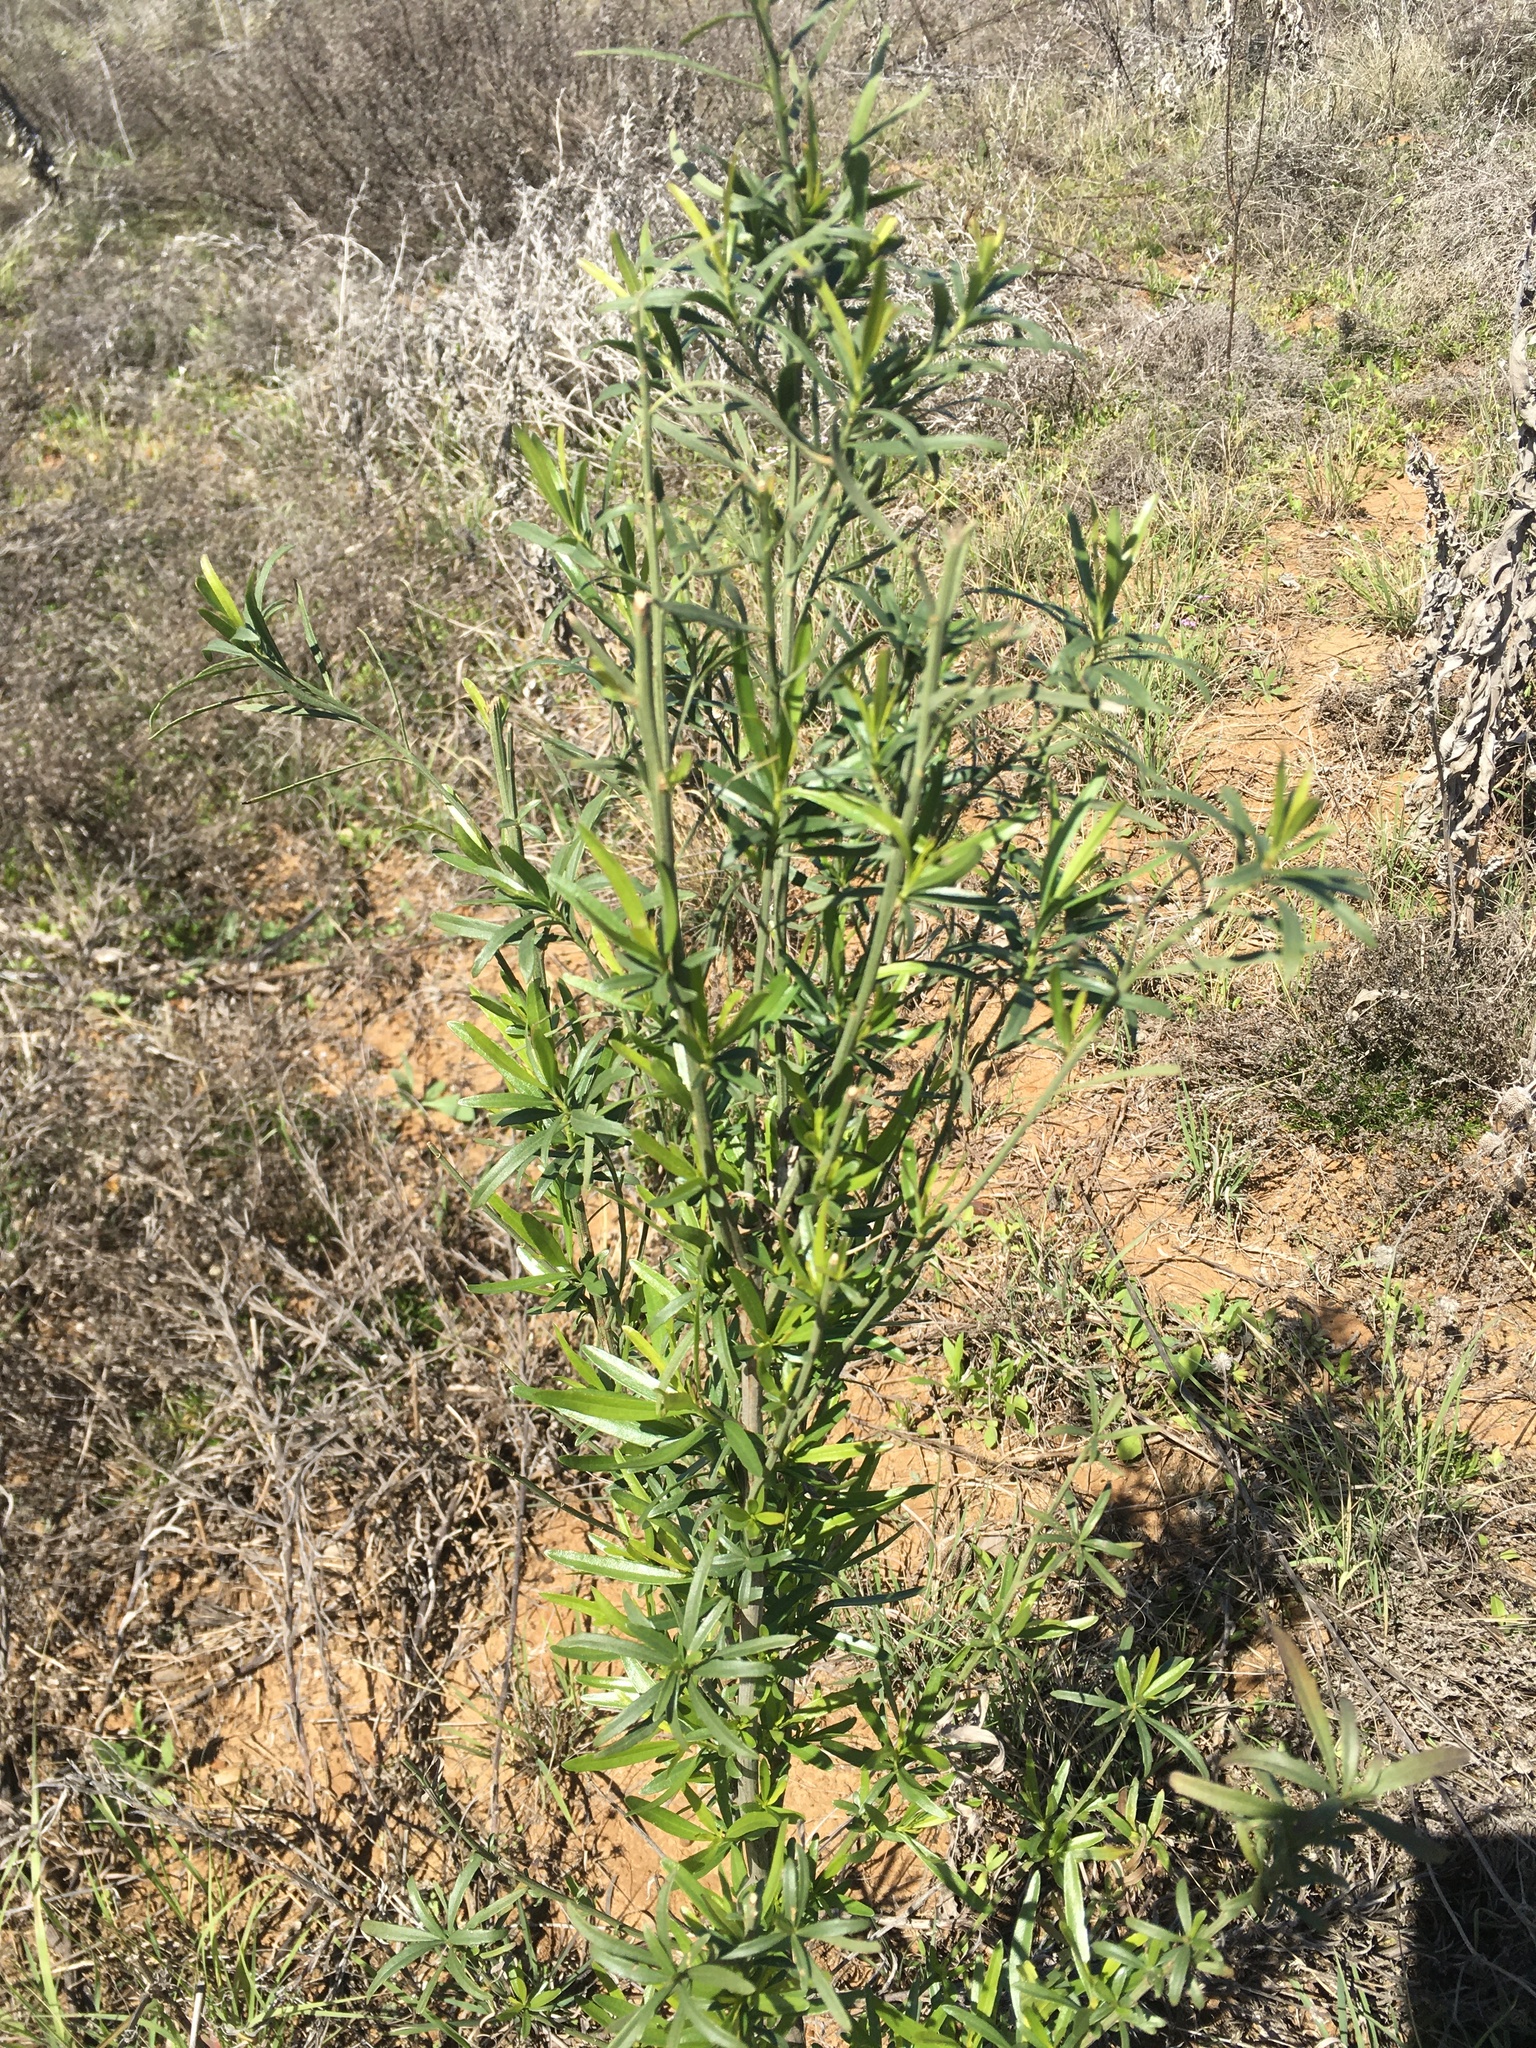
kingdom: Plantae
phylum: Tracheophyta
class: Magnoliopsida
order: Asterales
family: Asteraceae
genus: Baccharis
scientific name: Baccharis neglecta
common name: Roosevelt-weed
